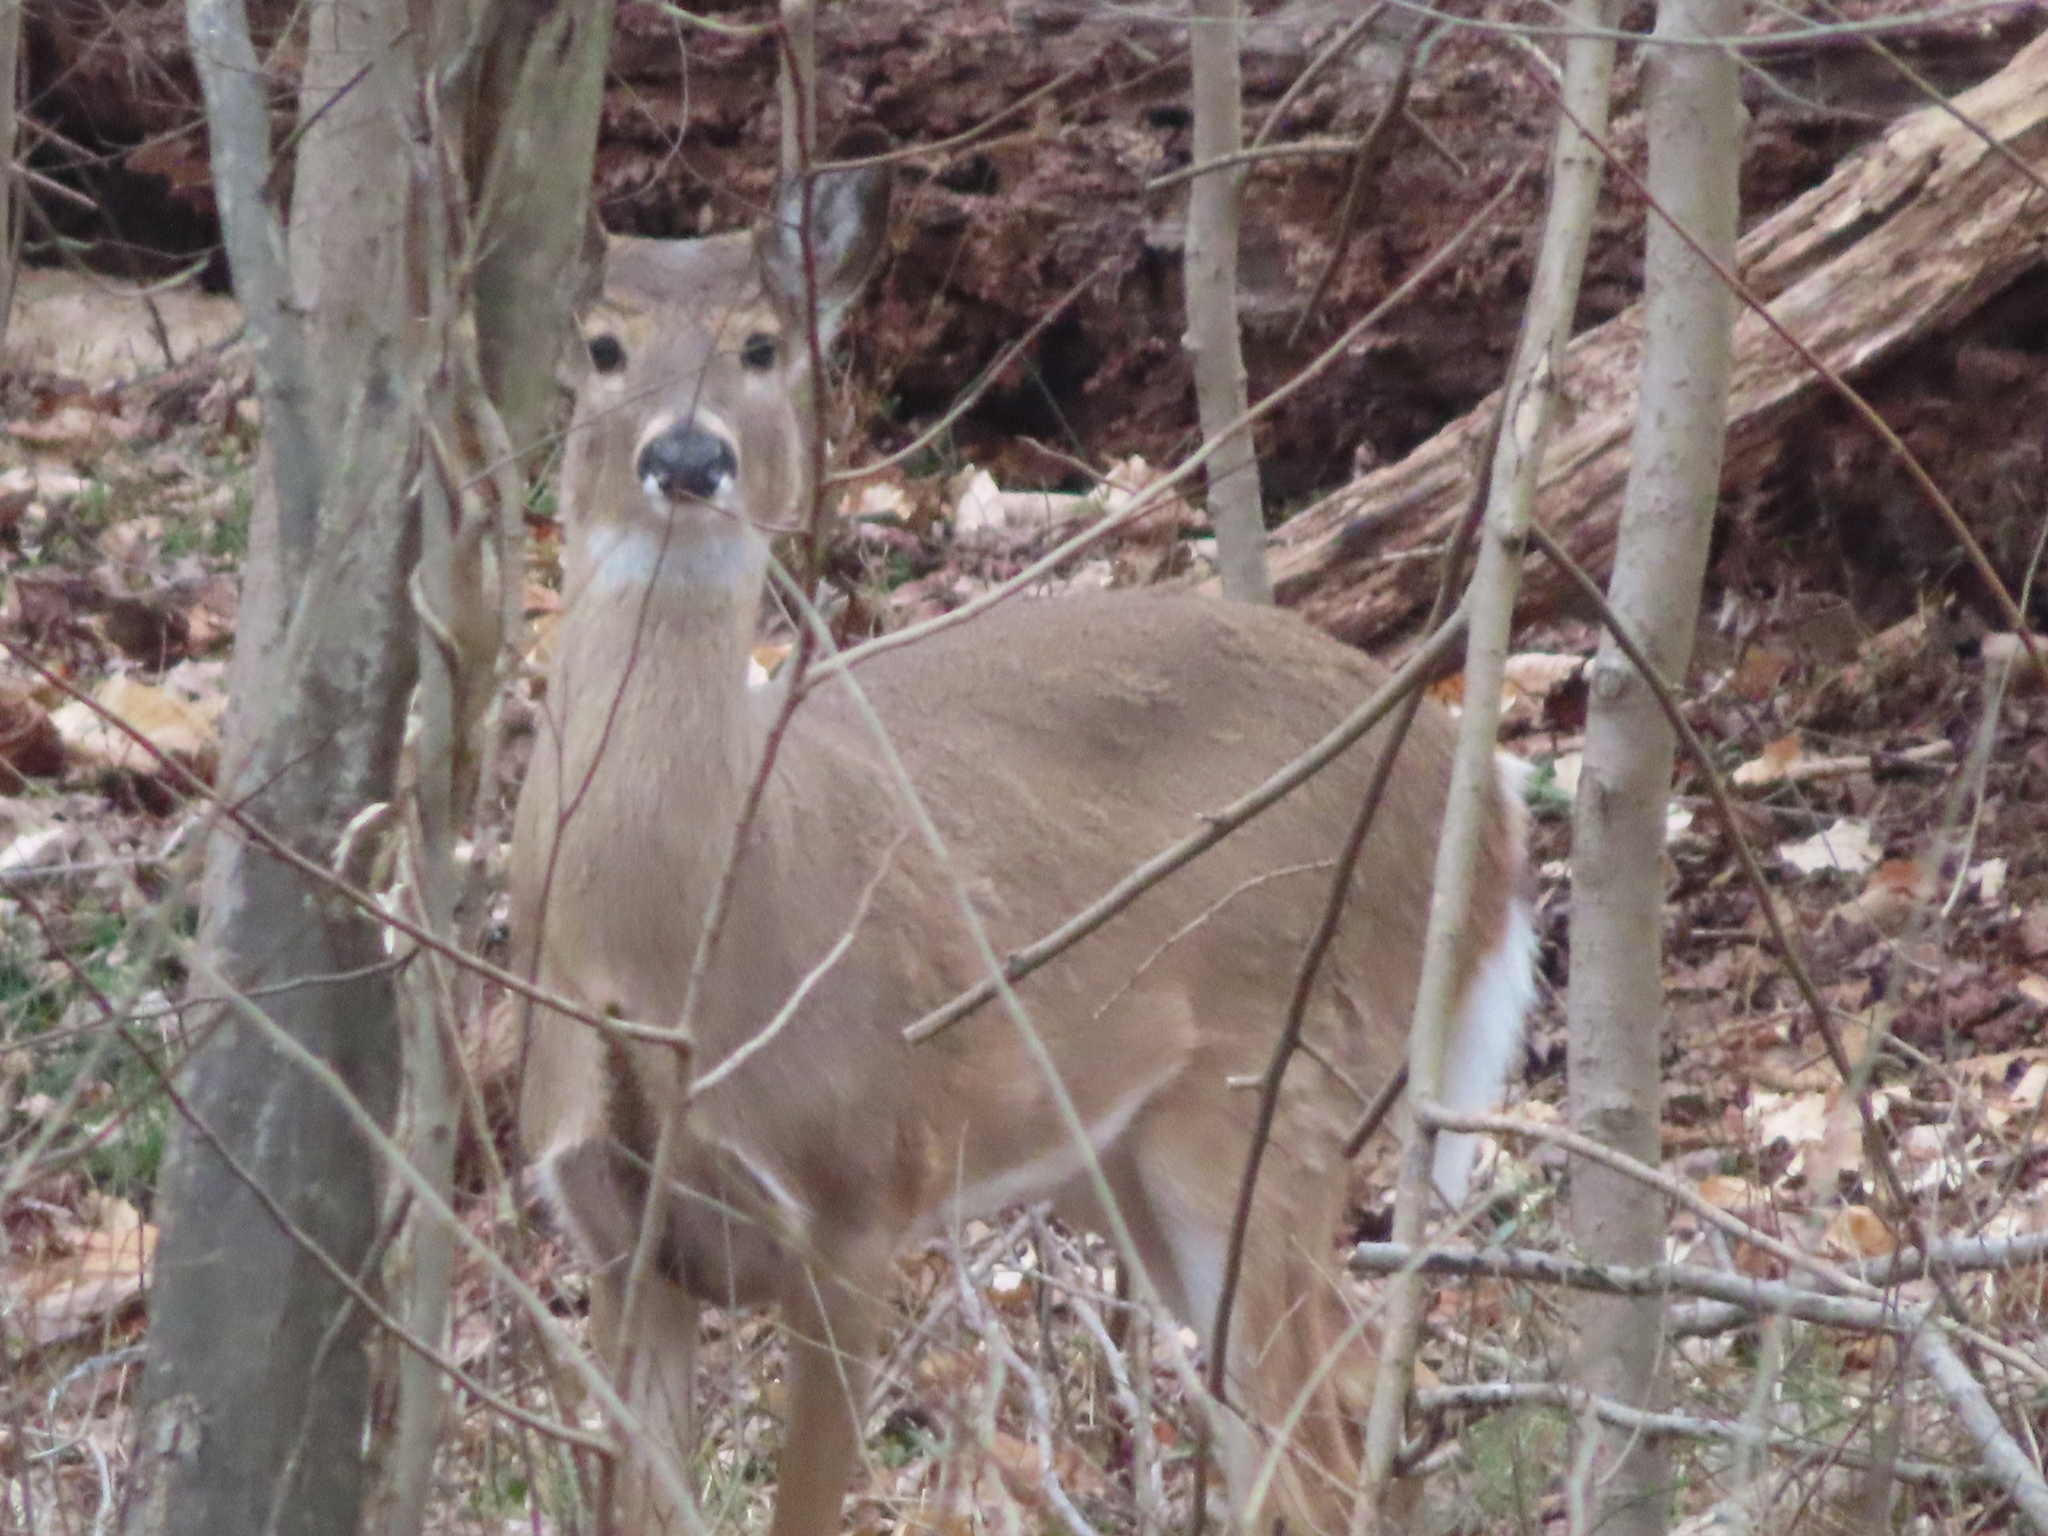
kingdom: Animalia
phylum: Chordata
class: Mammalia
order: Artiodactyla
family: Cervidae
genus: Odocoileus
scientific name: Odocoileus virginianus
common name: White-tailed deer
